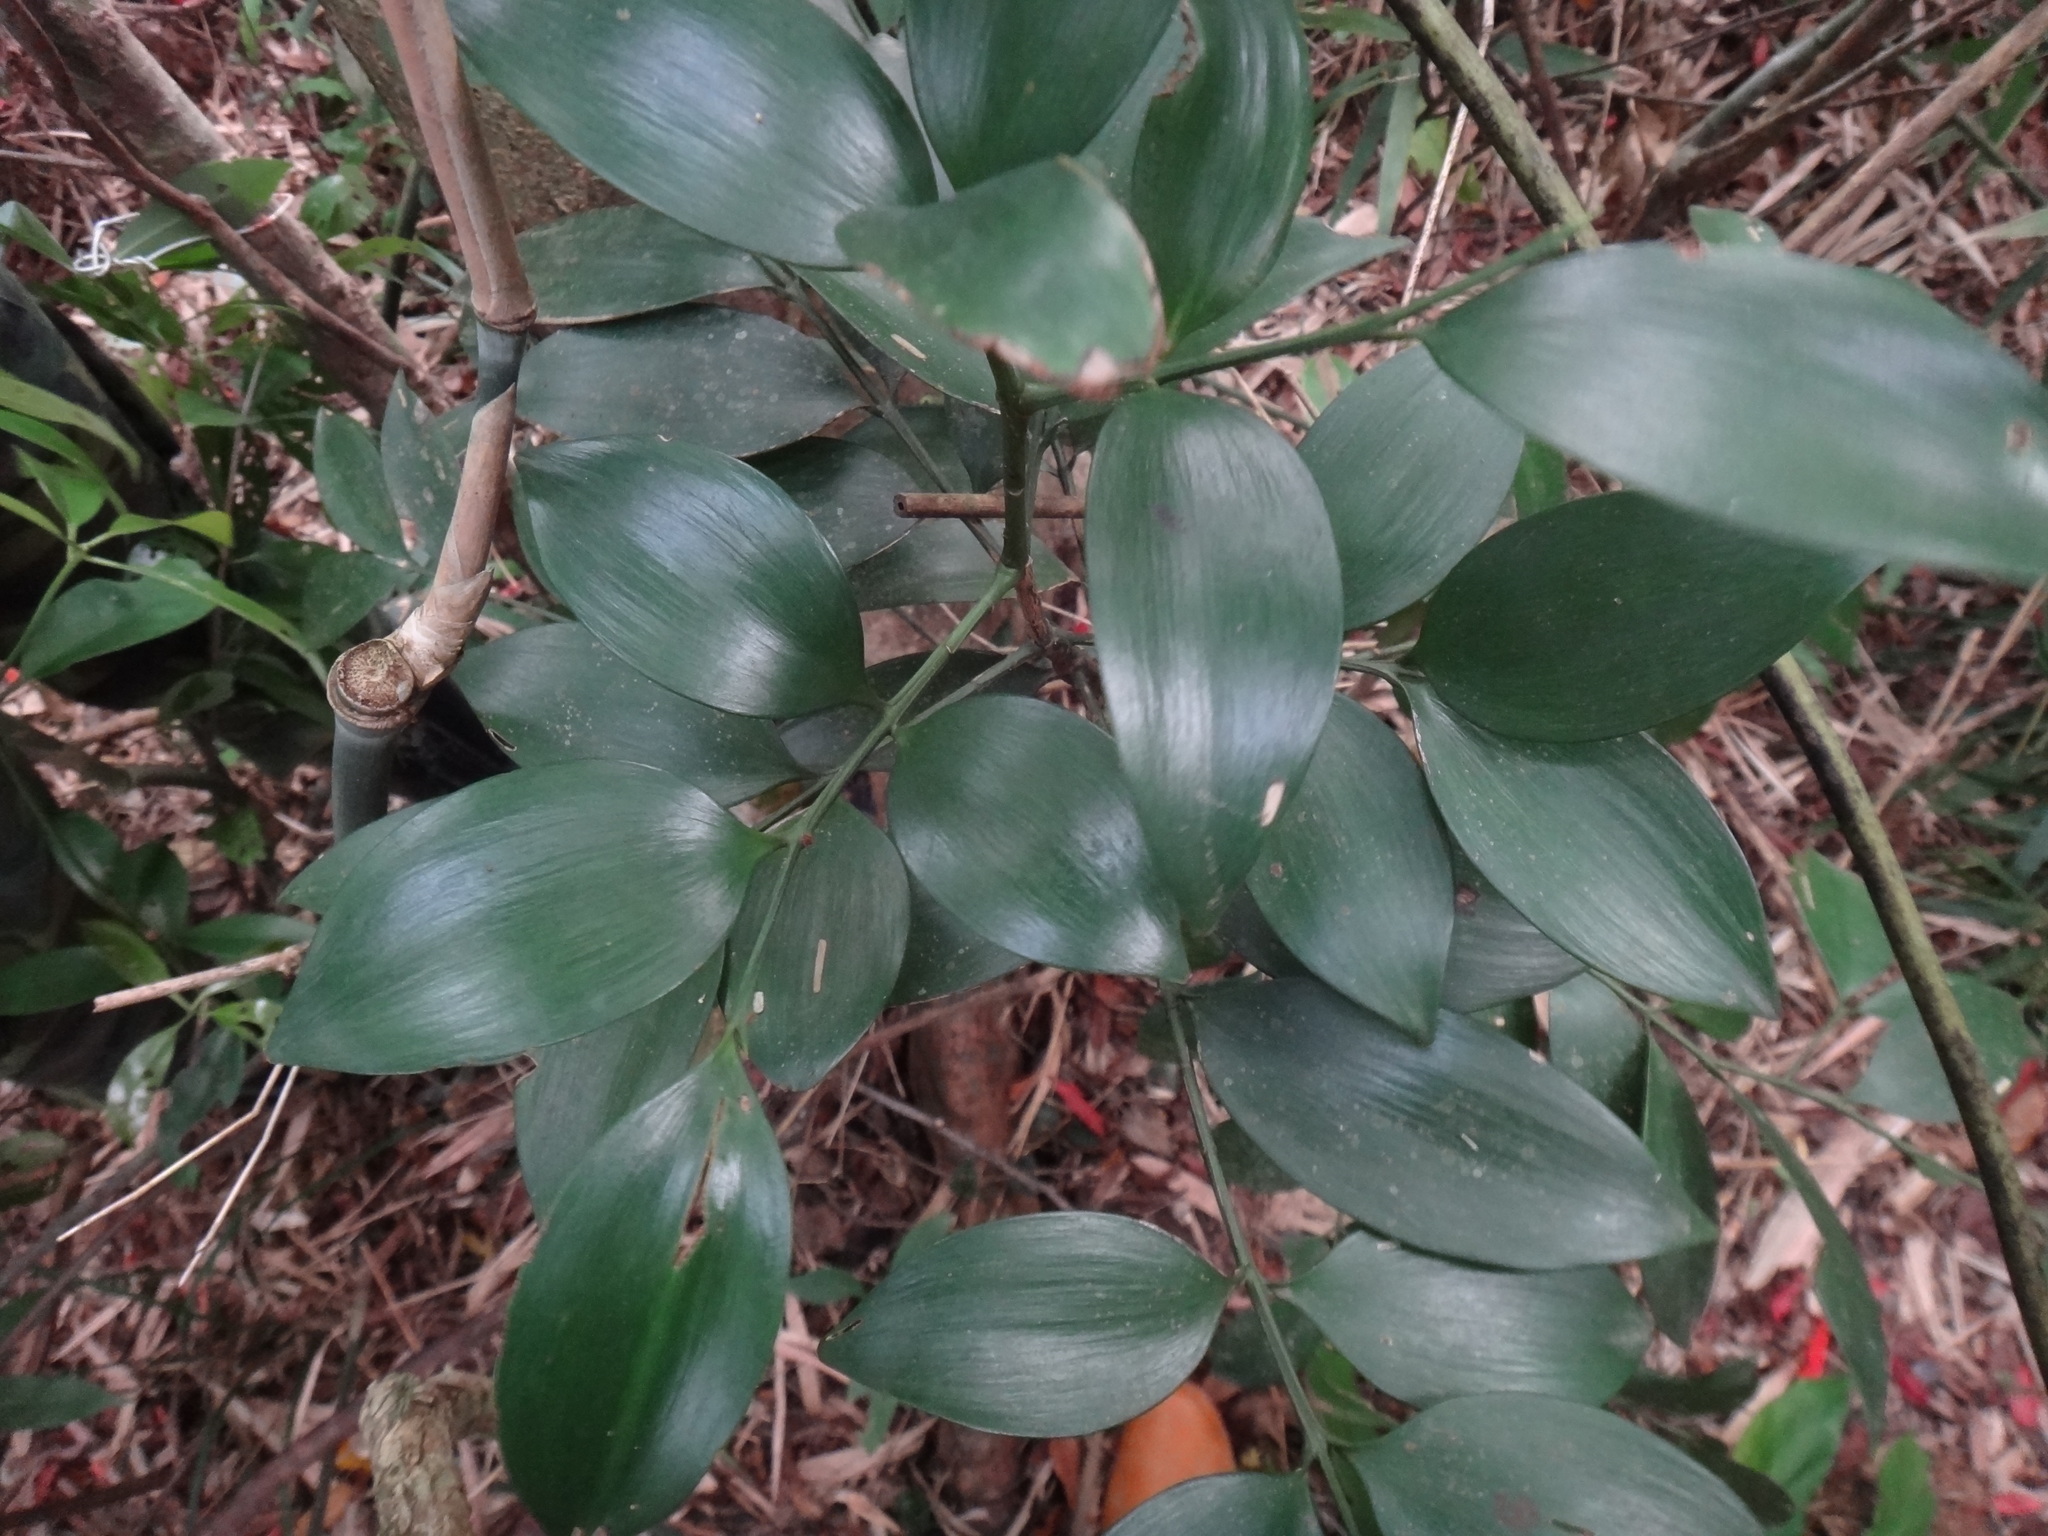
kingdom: Plantae
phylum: Tracheophyta
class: Pinopsida
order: Pinales
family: Podocarpaceae
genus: Nageia
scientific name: Nageia nagi
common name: Kaphal
